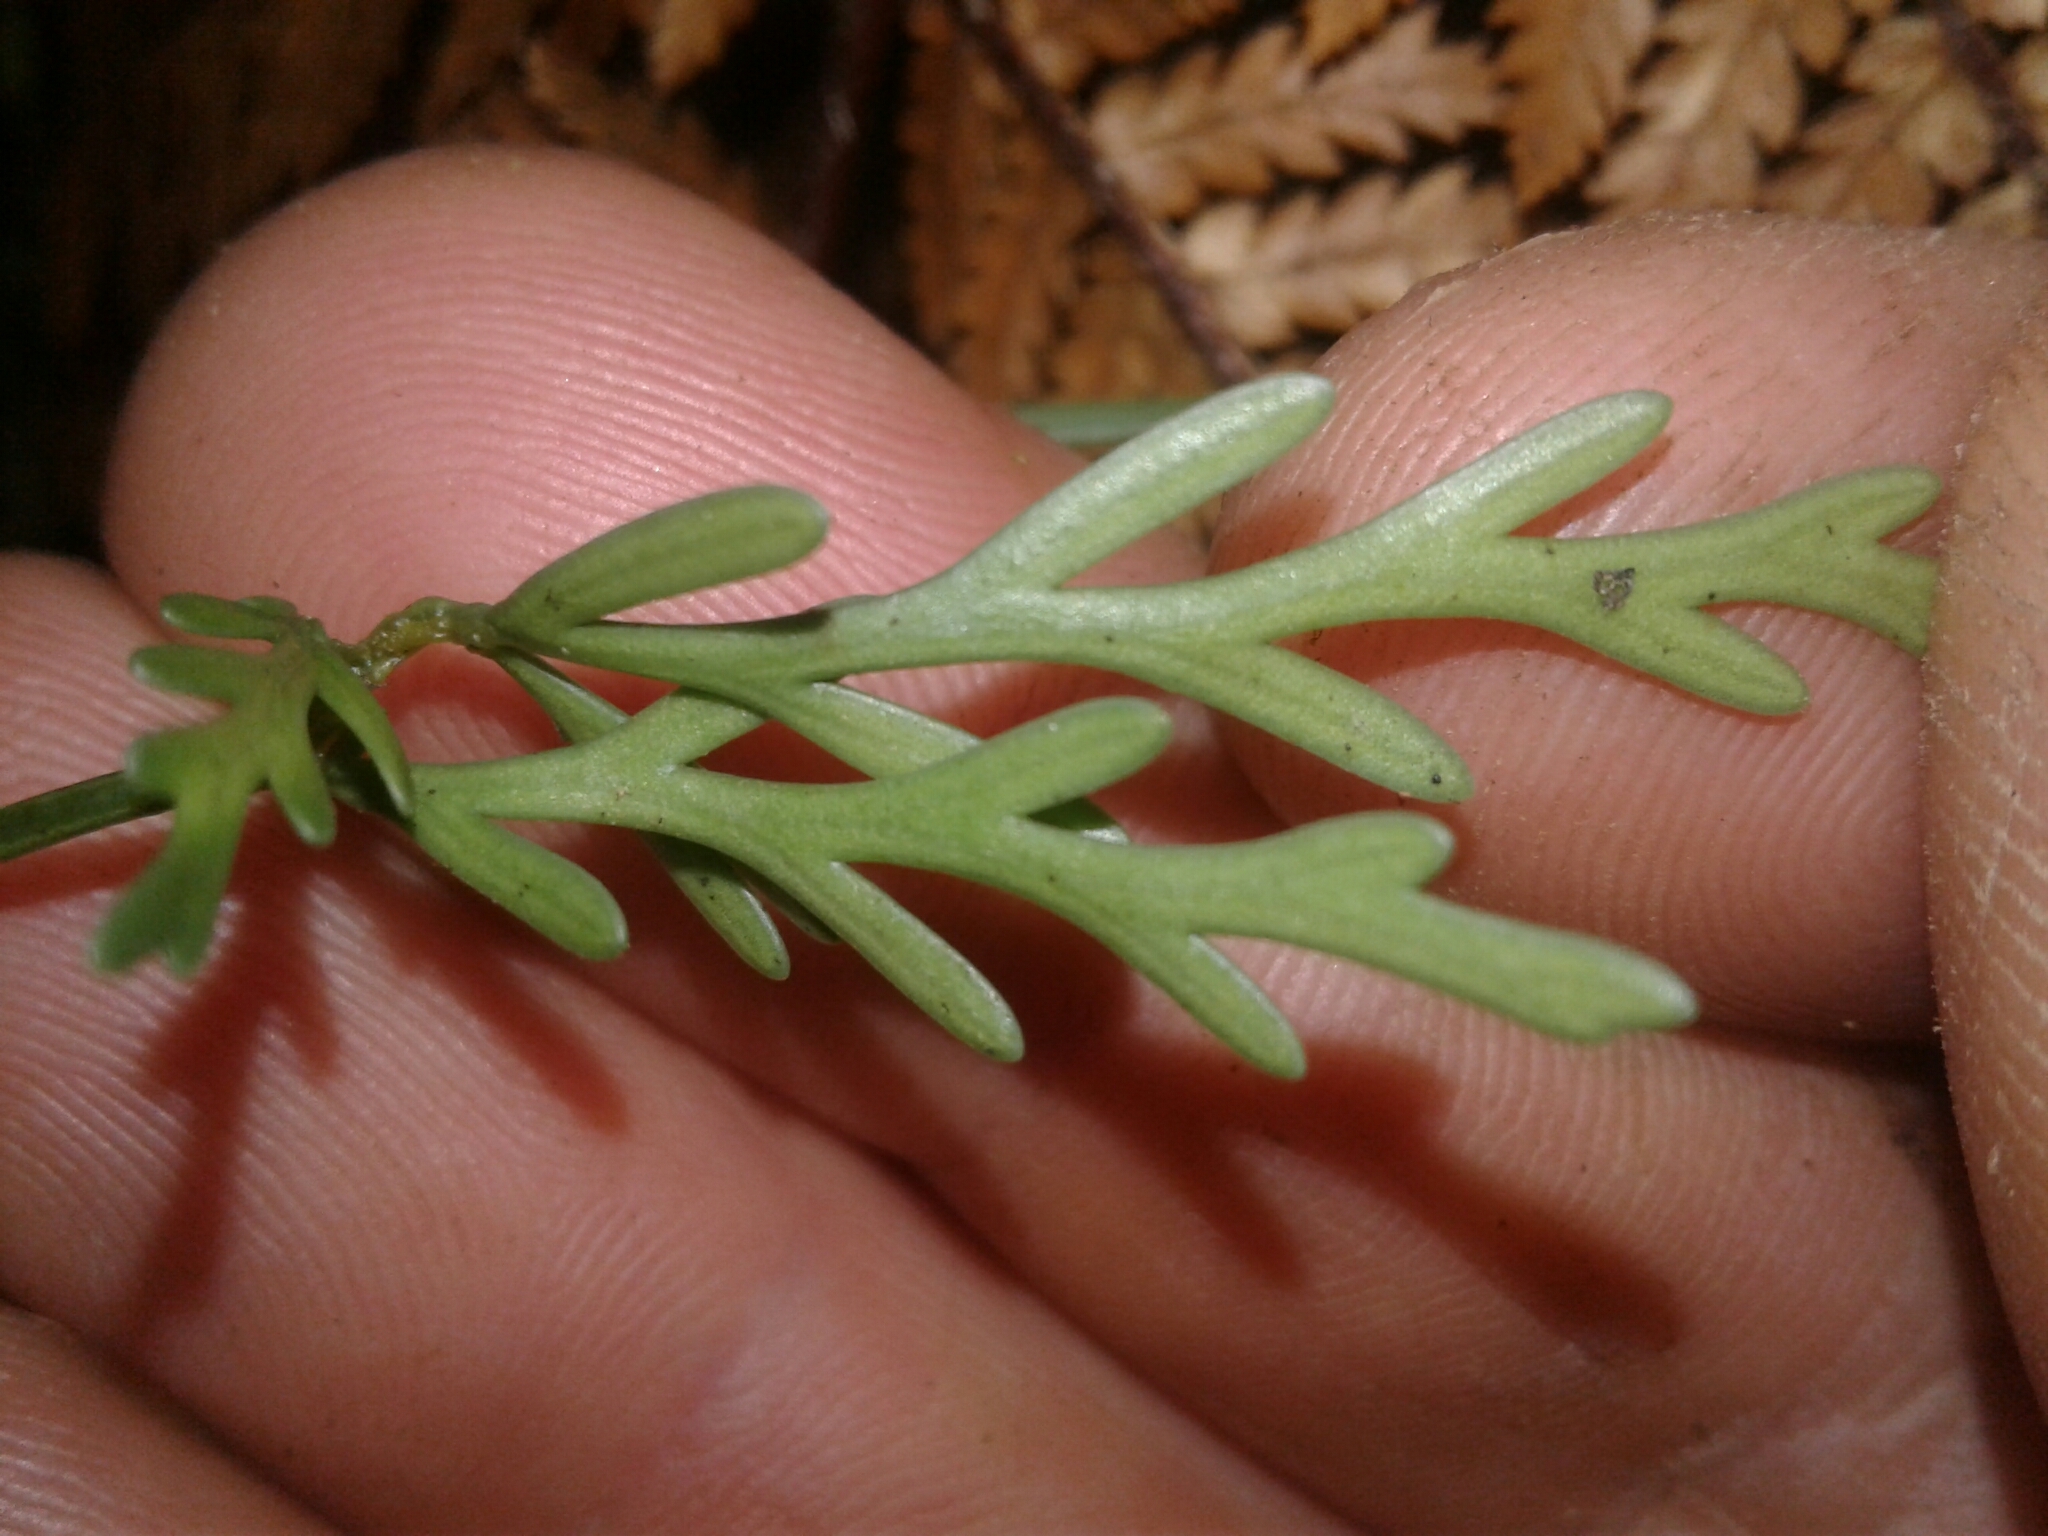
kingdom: Plantae
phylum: Tracheophyta
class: Polypodiopsida
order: Polypodiales
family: Aspleniaceae
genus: Asplenium
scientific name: Asplenium flaccidum
